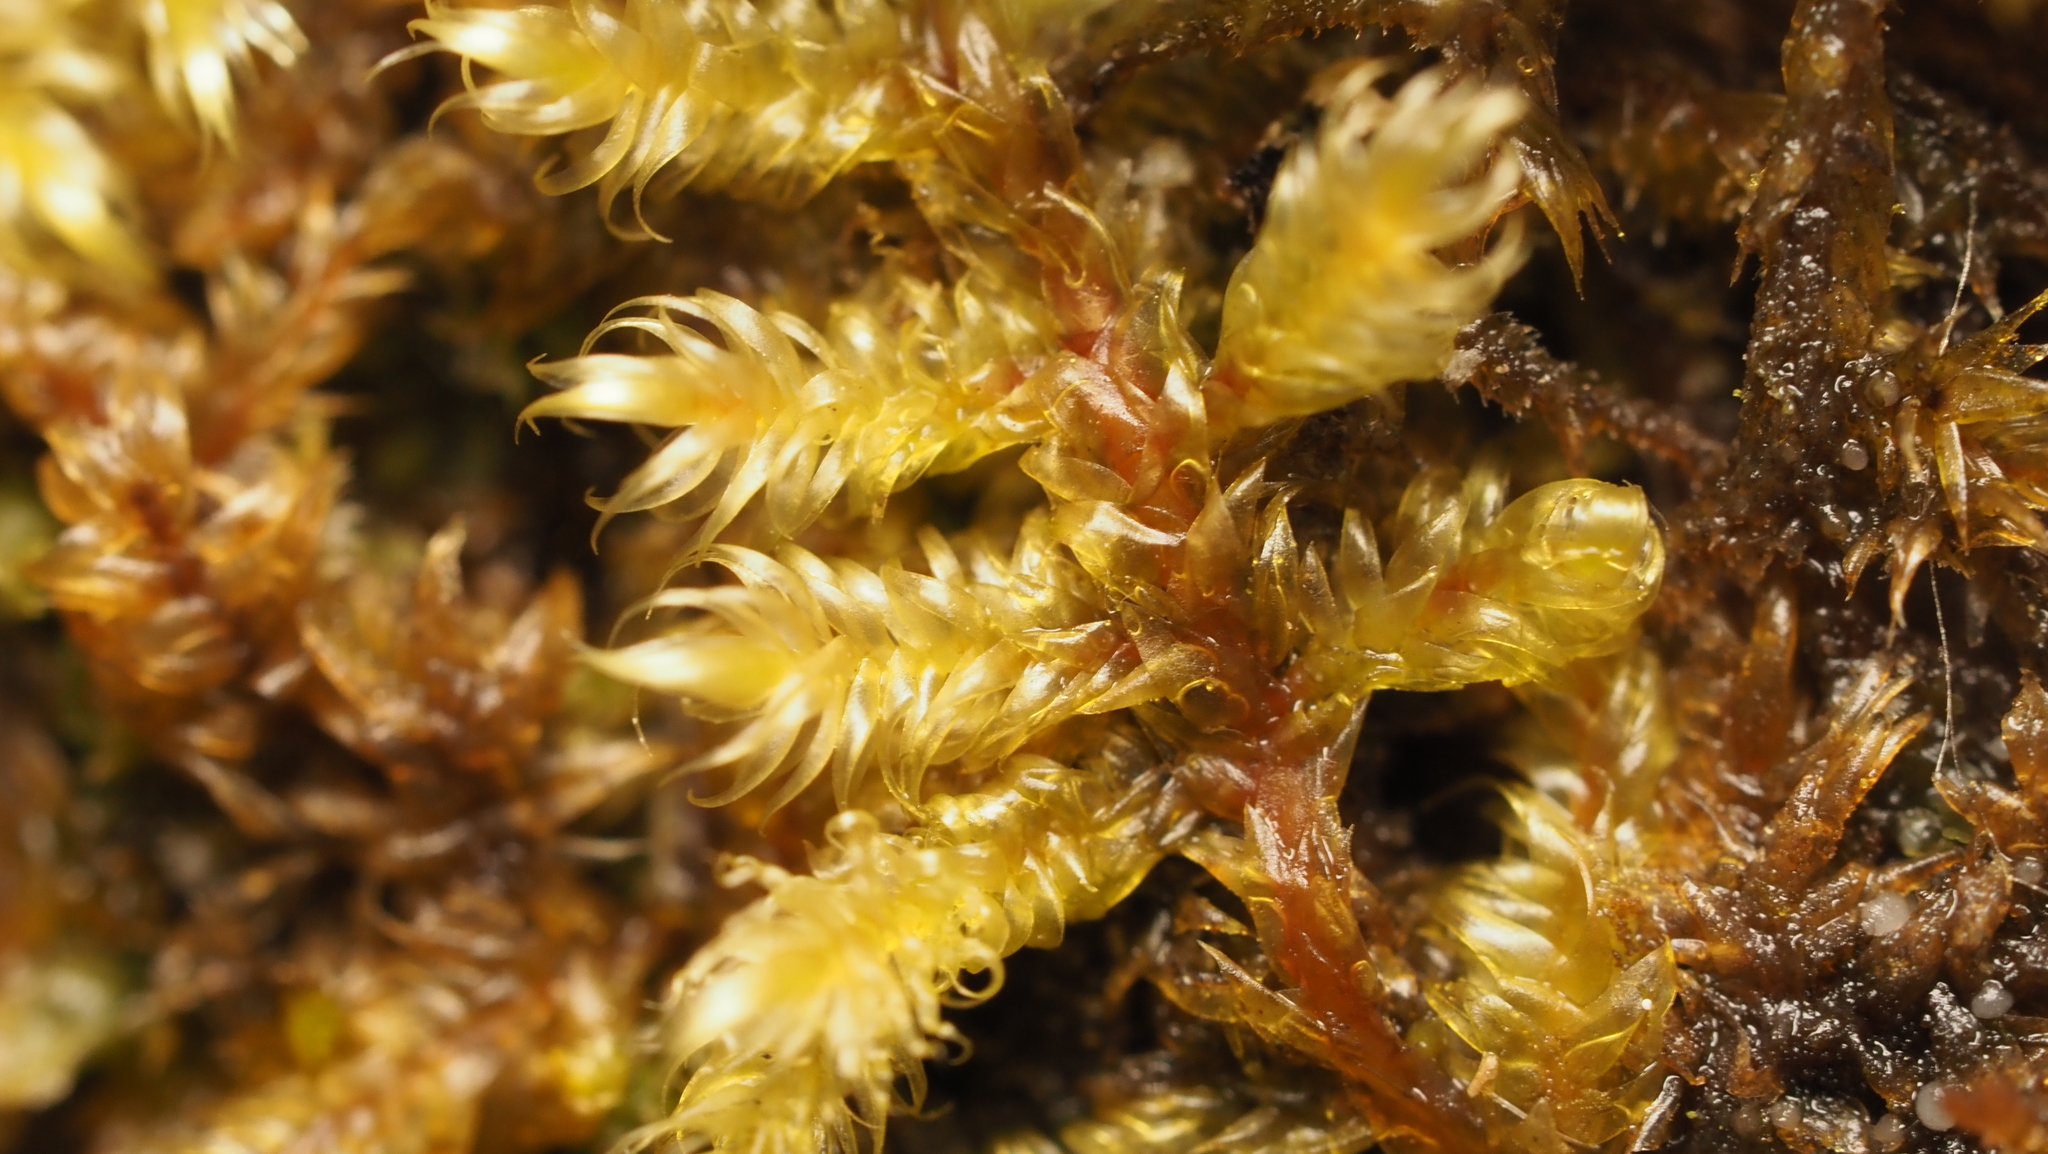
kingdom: Plantae
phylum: Bryophyta
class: Bryopsida
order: Hypnales
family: Callicladiaceae
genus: Callicladium
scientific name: Callicladium imponens
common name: Brocade moss
